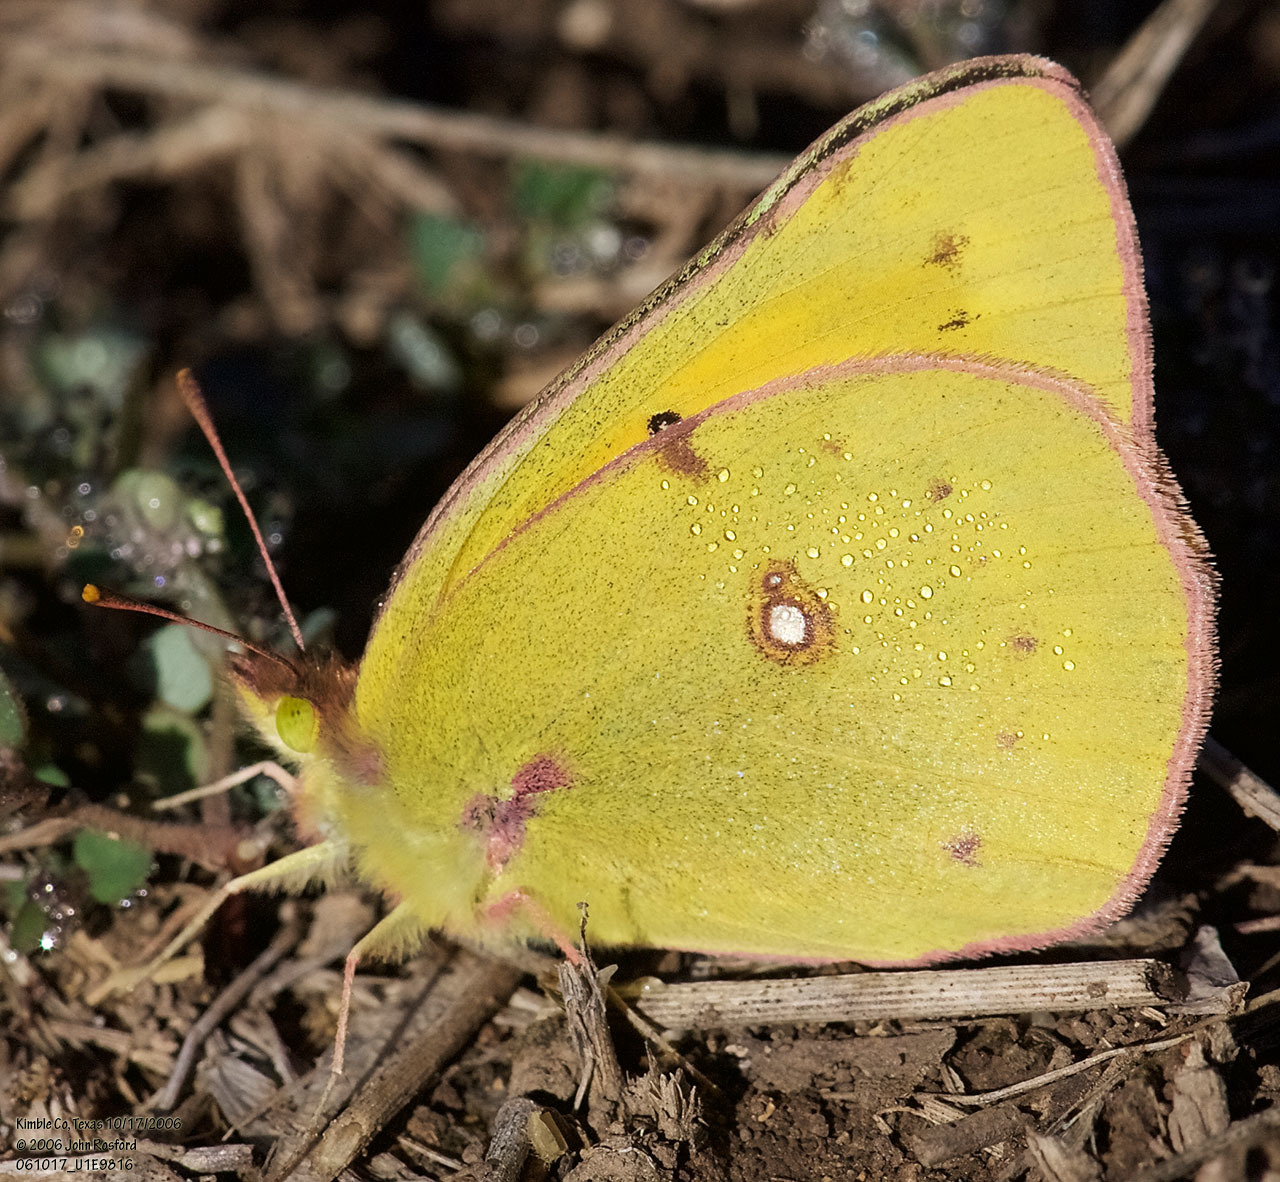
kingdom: Animalia
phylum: Arthropoda
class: Insecta
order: Lepidoptera
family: Pieridae
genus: Colias
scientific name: Colias eurytheme
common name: Alfalfa butterfly
